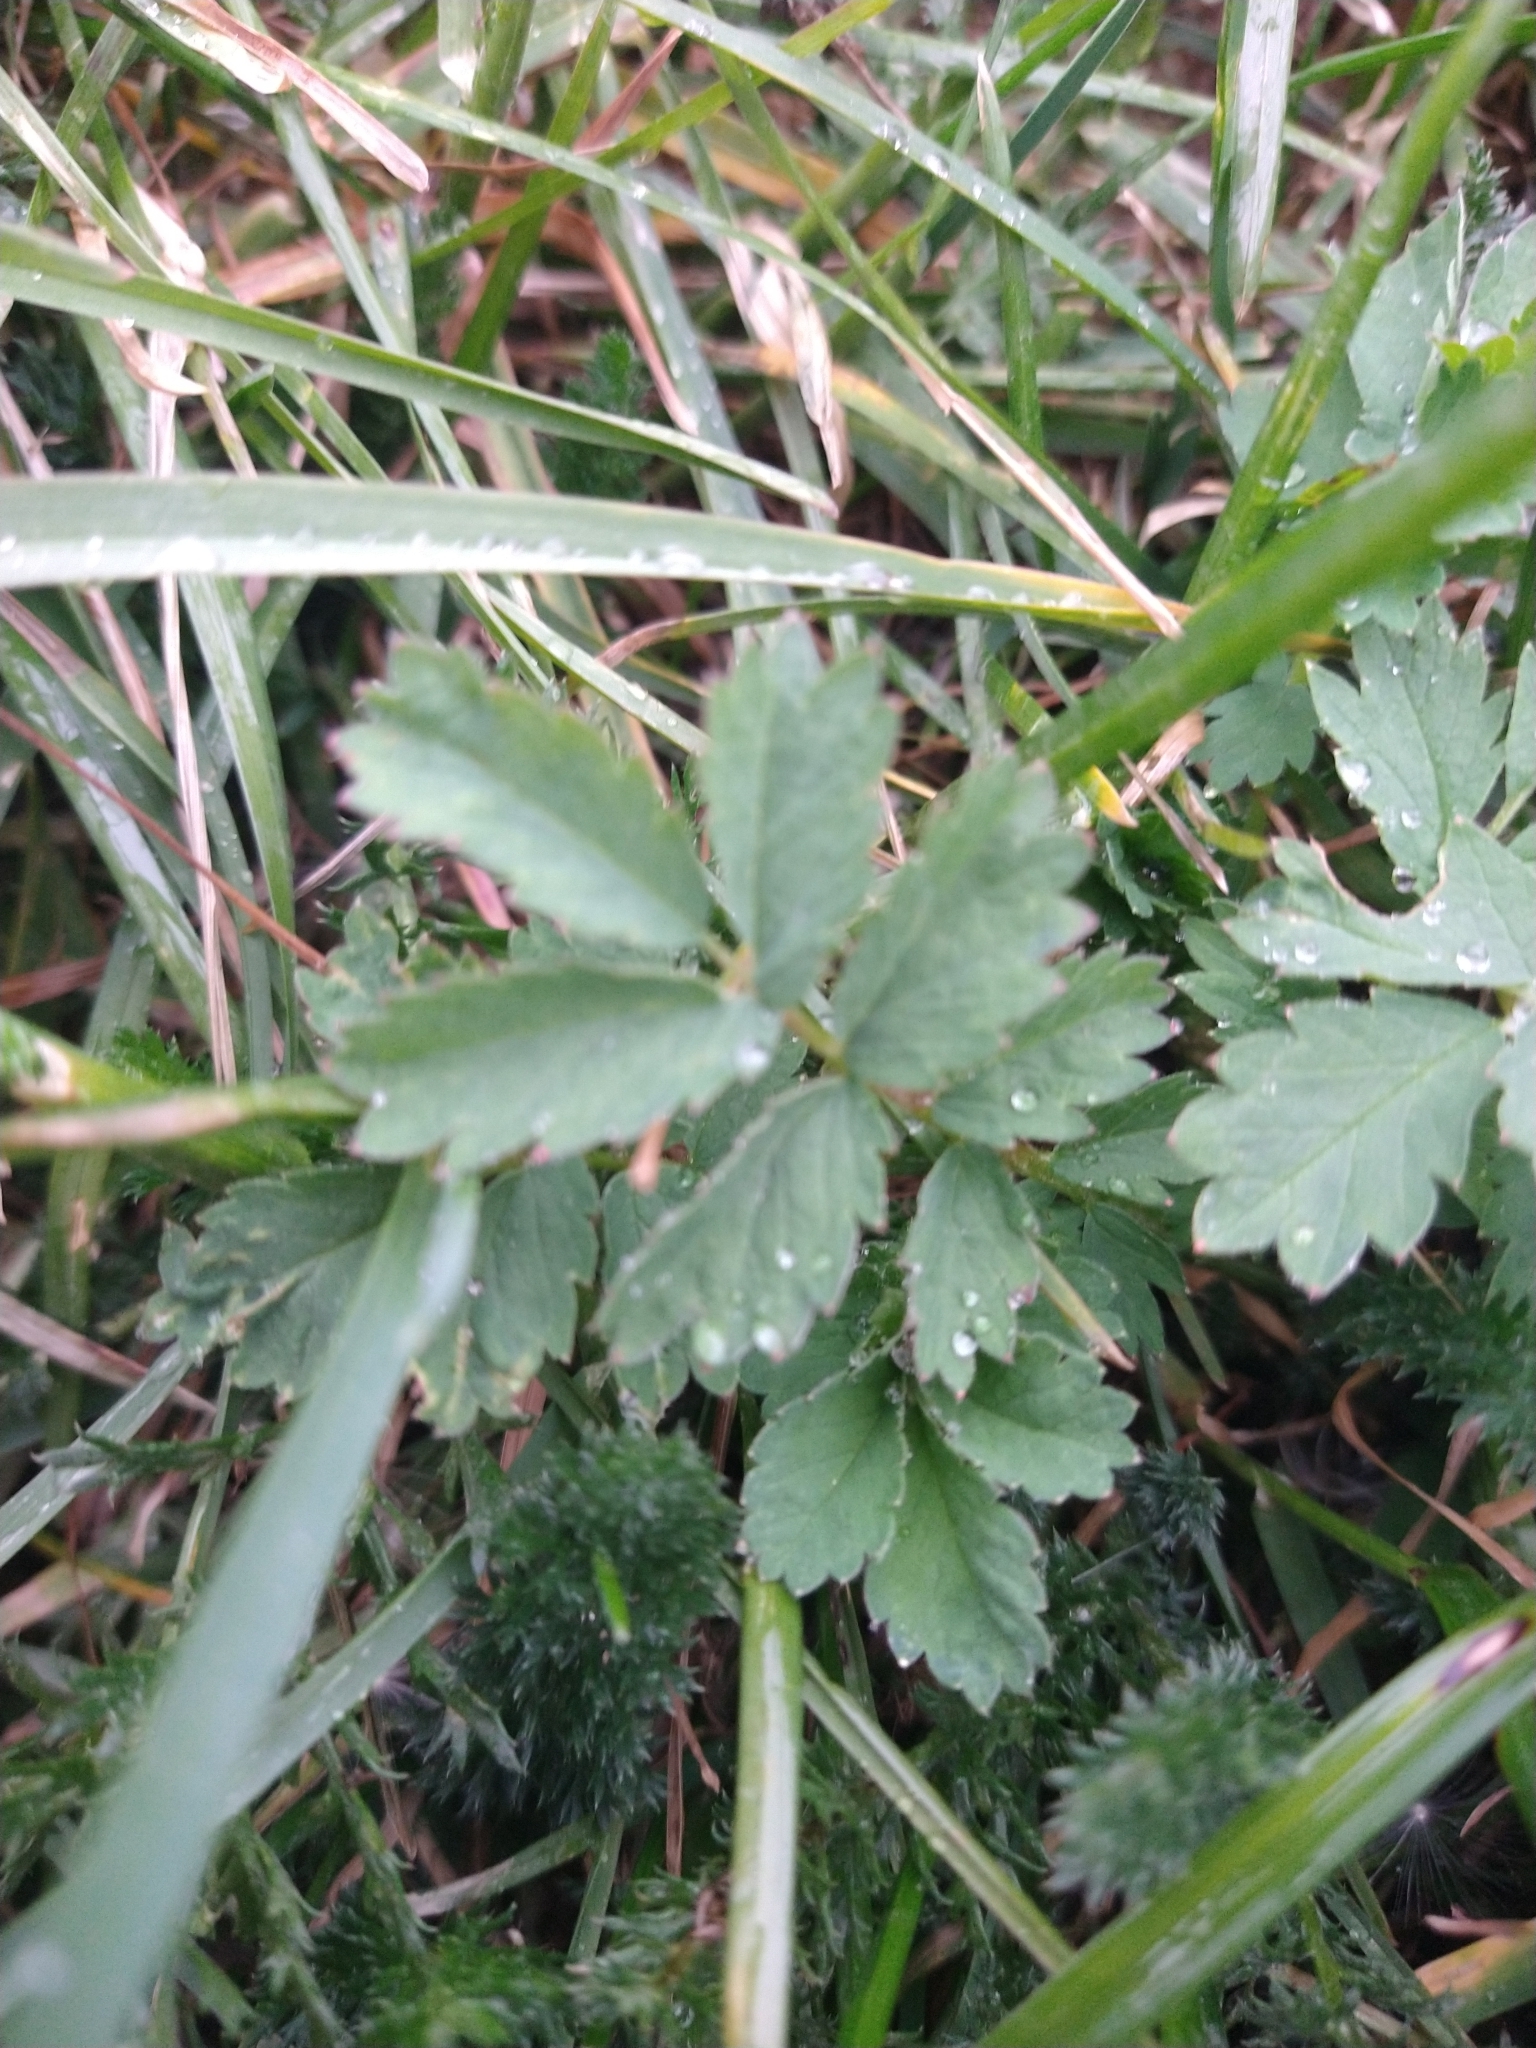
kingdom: Plantae
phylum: Tracheophyta
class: Magnoliopsida
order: Rosales
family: Rosaceae
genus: Acaena
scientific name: Acaena magellanica
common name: New zealand burr
